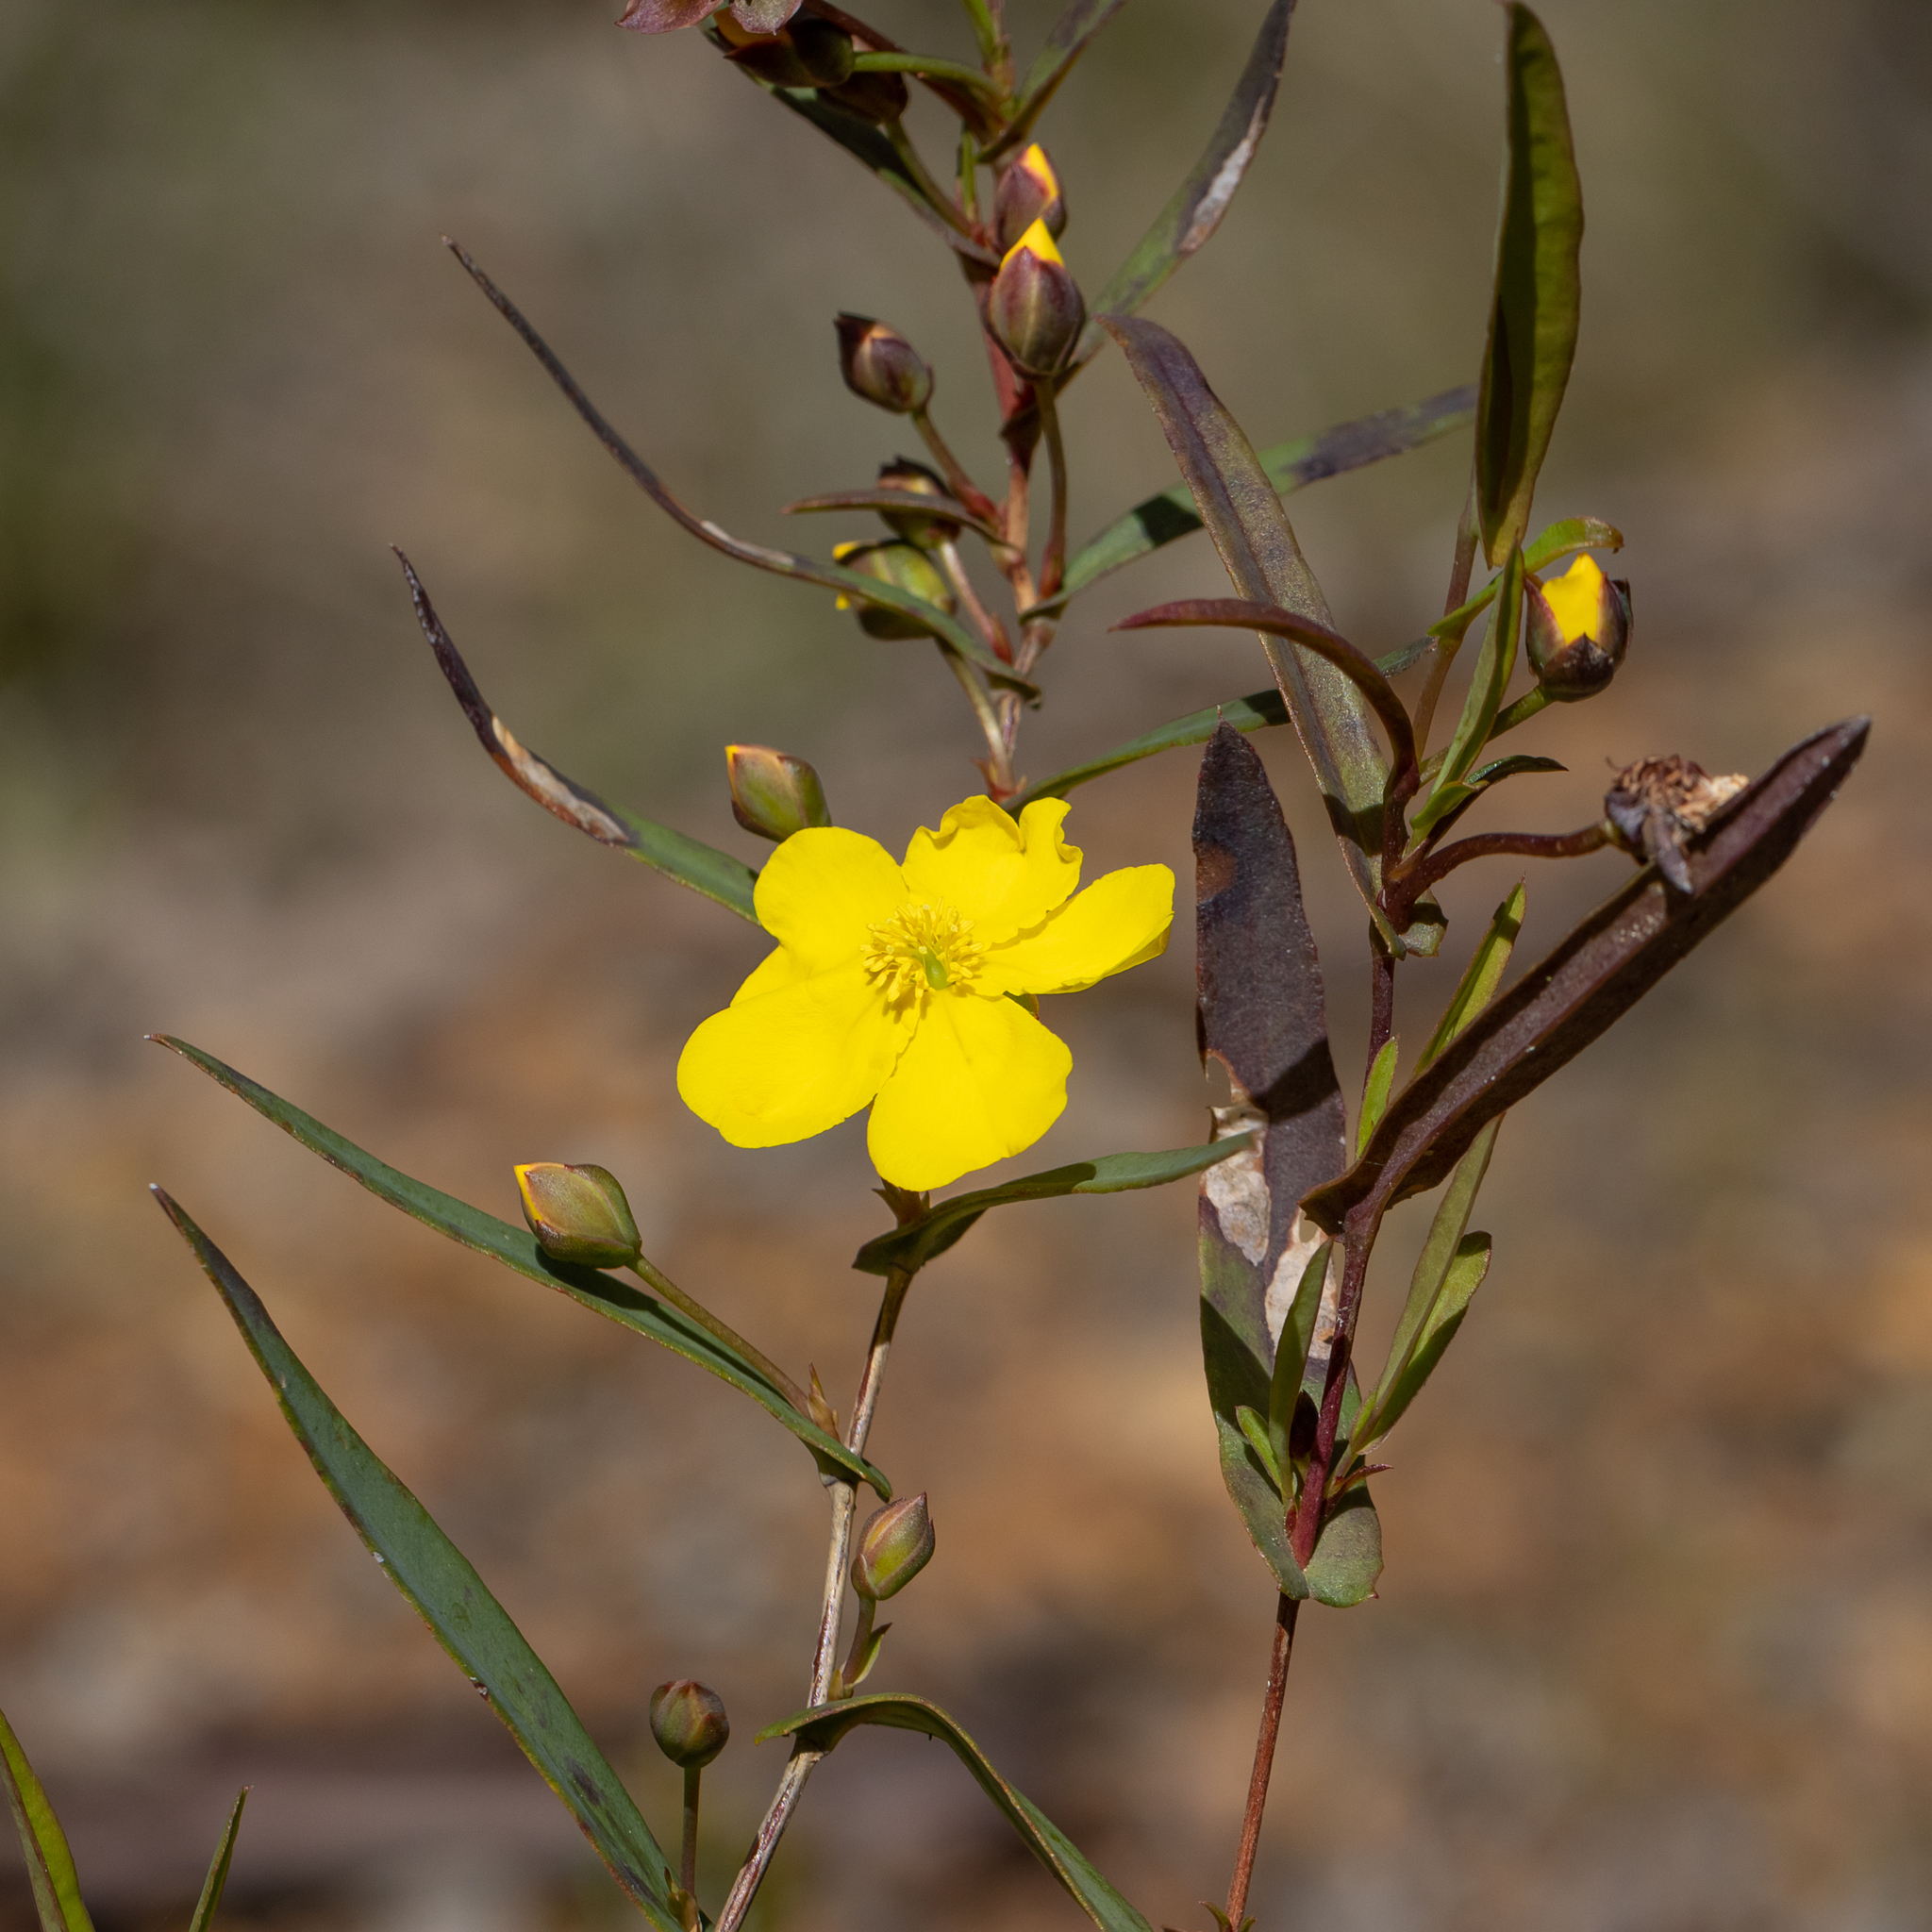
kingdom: Plantae
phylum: Tracheophyta
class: Magnoliopsida
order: Dilleniales
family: Dilleniaceae
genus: Hibbertia
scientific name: Hibbertia cunninghamii
